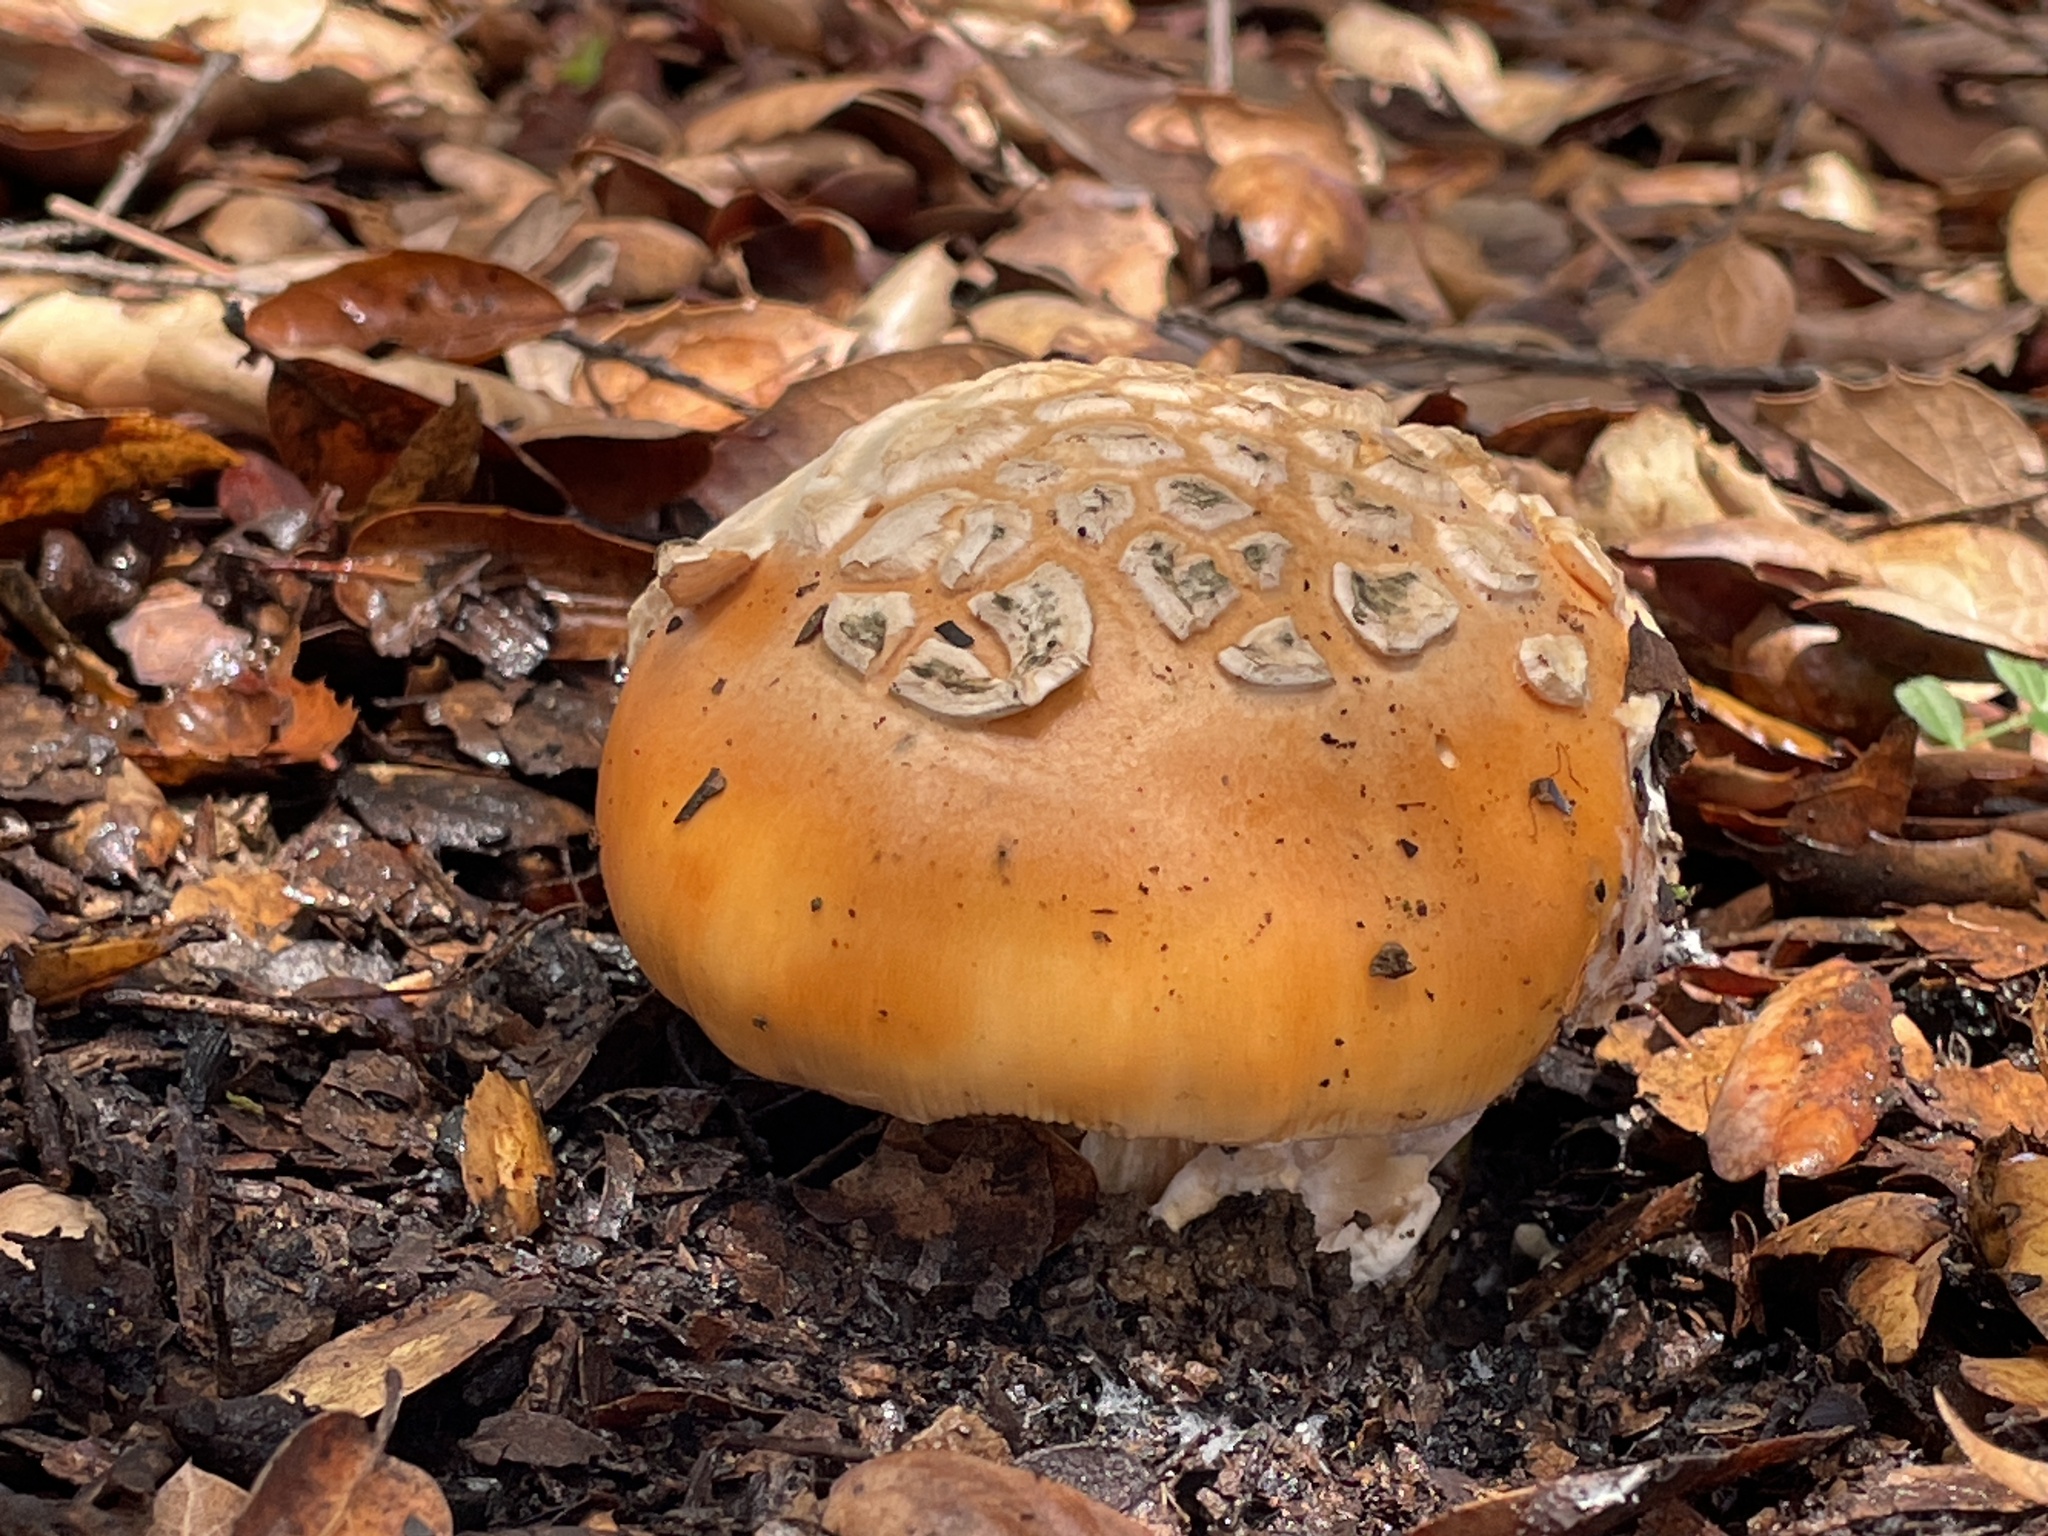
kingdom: Fungi
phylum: Basidiomycota
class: Agaricomycetes
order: Agaricales
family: Amanitaceae
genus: Amanita
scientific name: Amanita velosa
